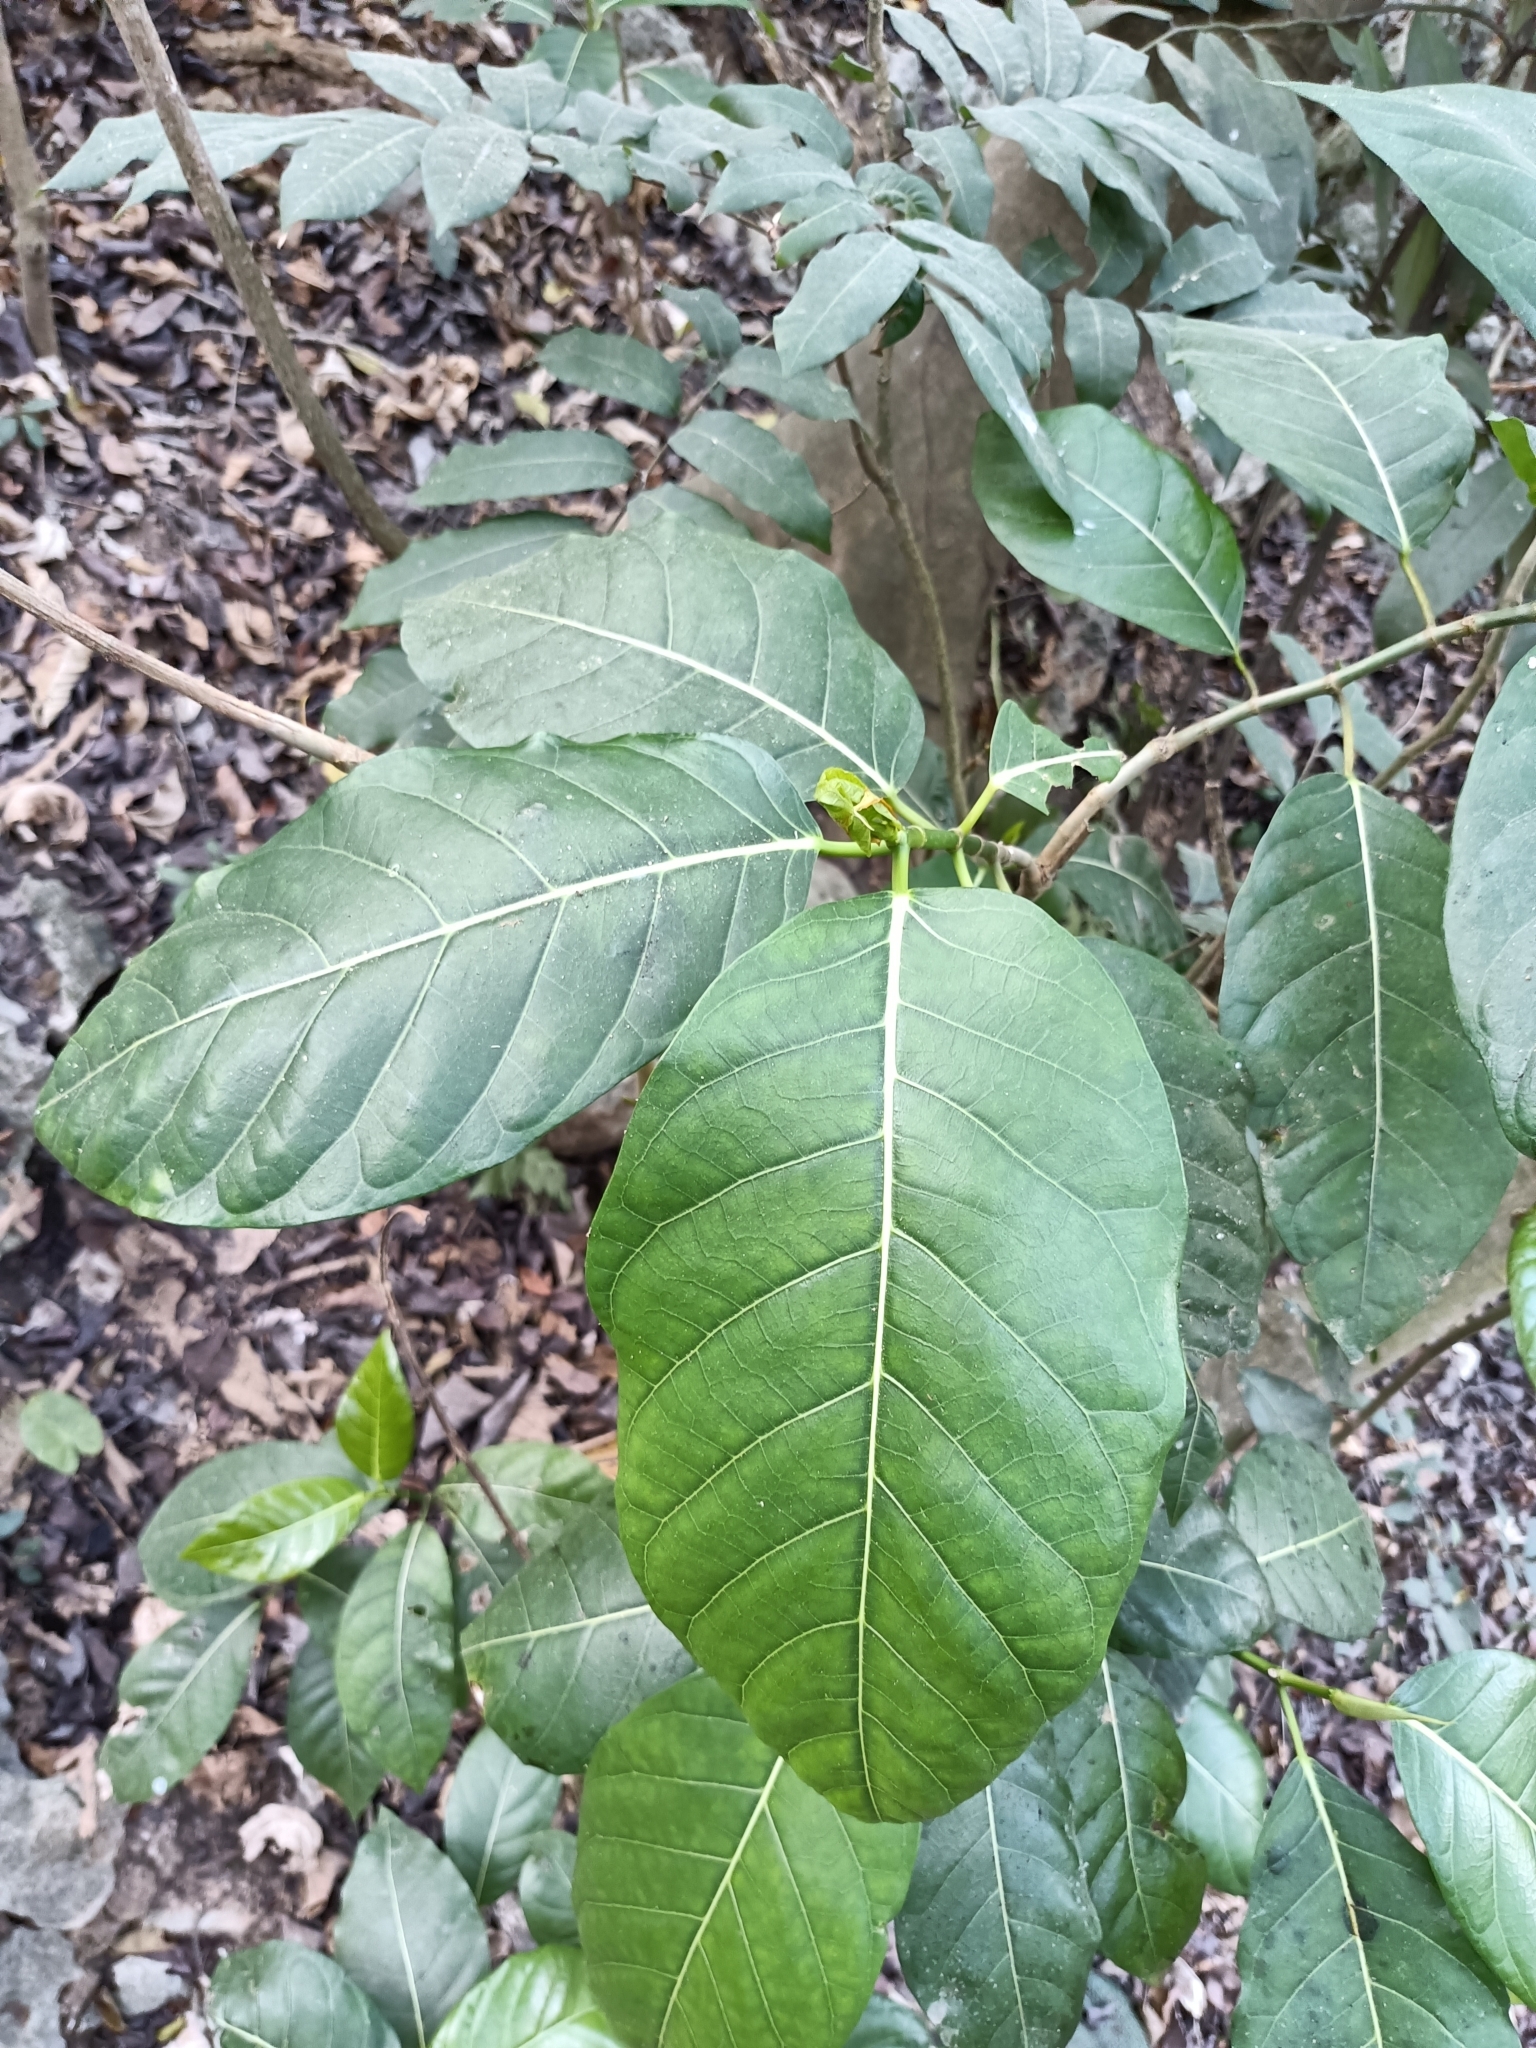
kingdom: Plantae
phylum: Tracheophyta
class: Magnoliopsida
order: Rosales
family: Moraceae
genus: Ficus
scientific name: Ficus septica
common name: Septic fig
